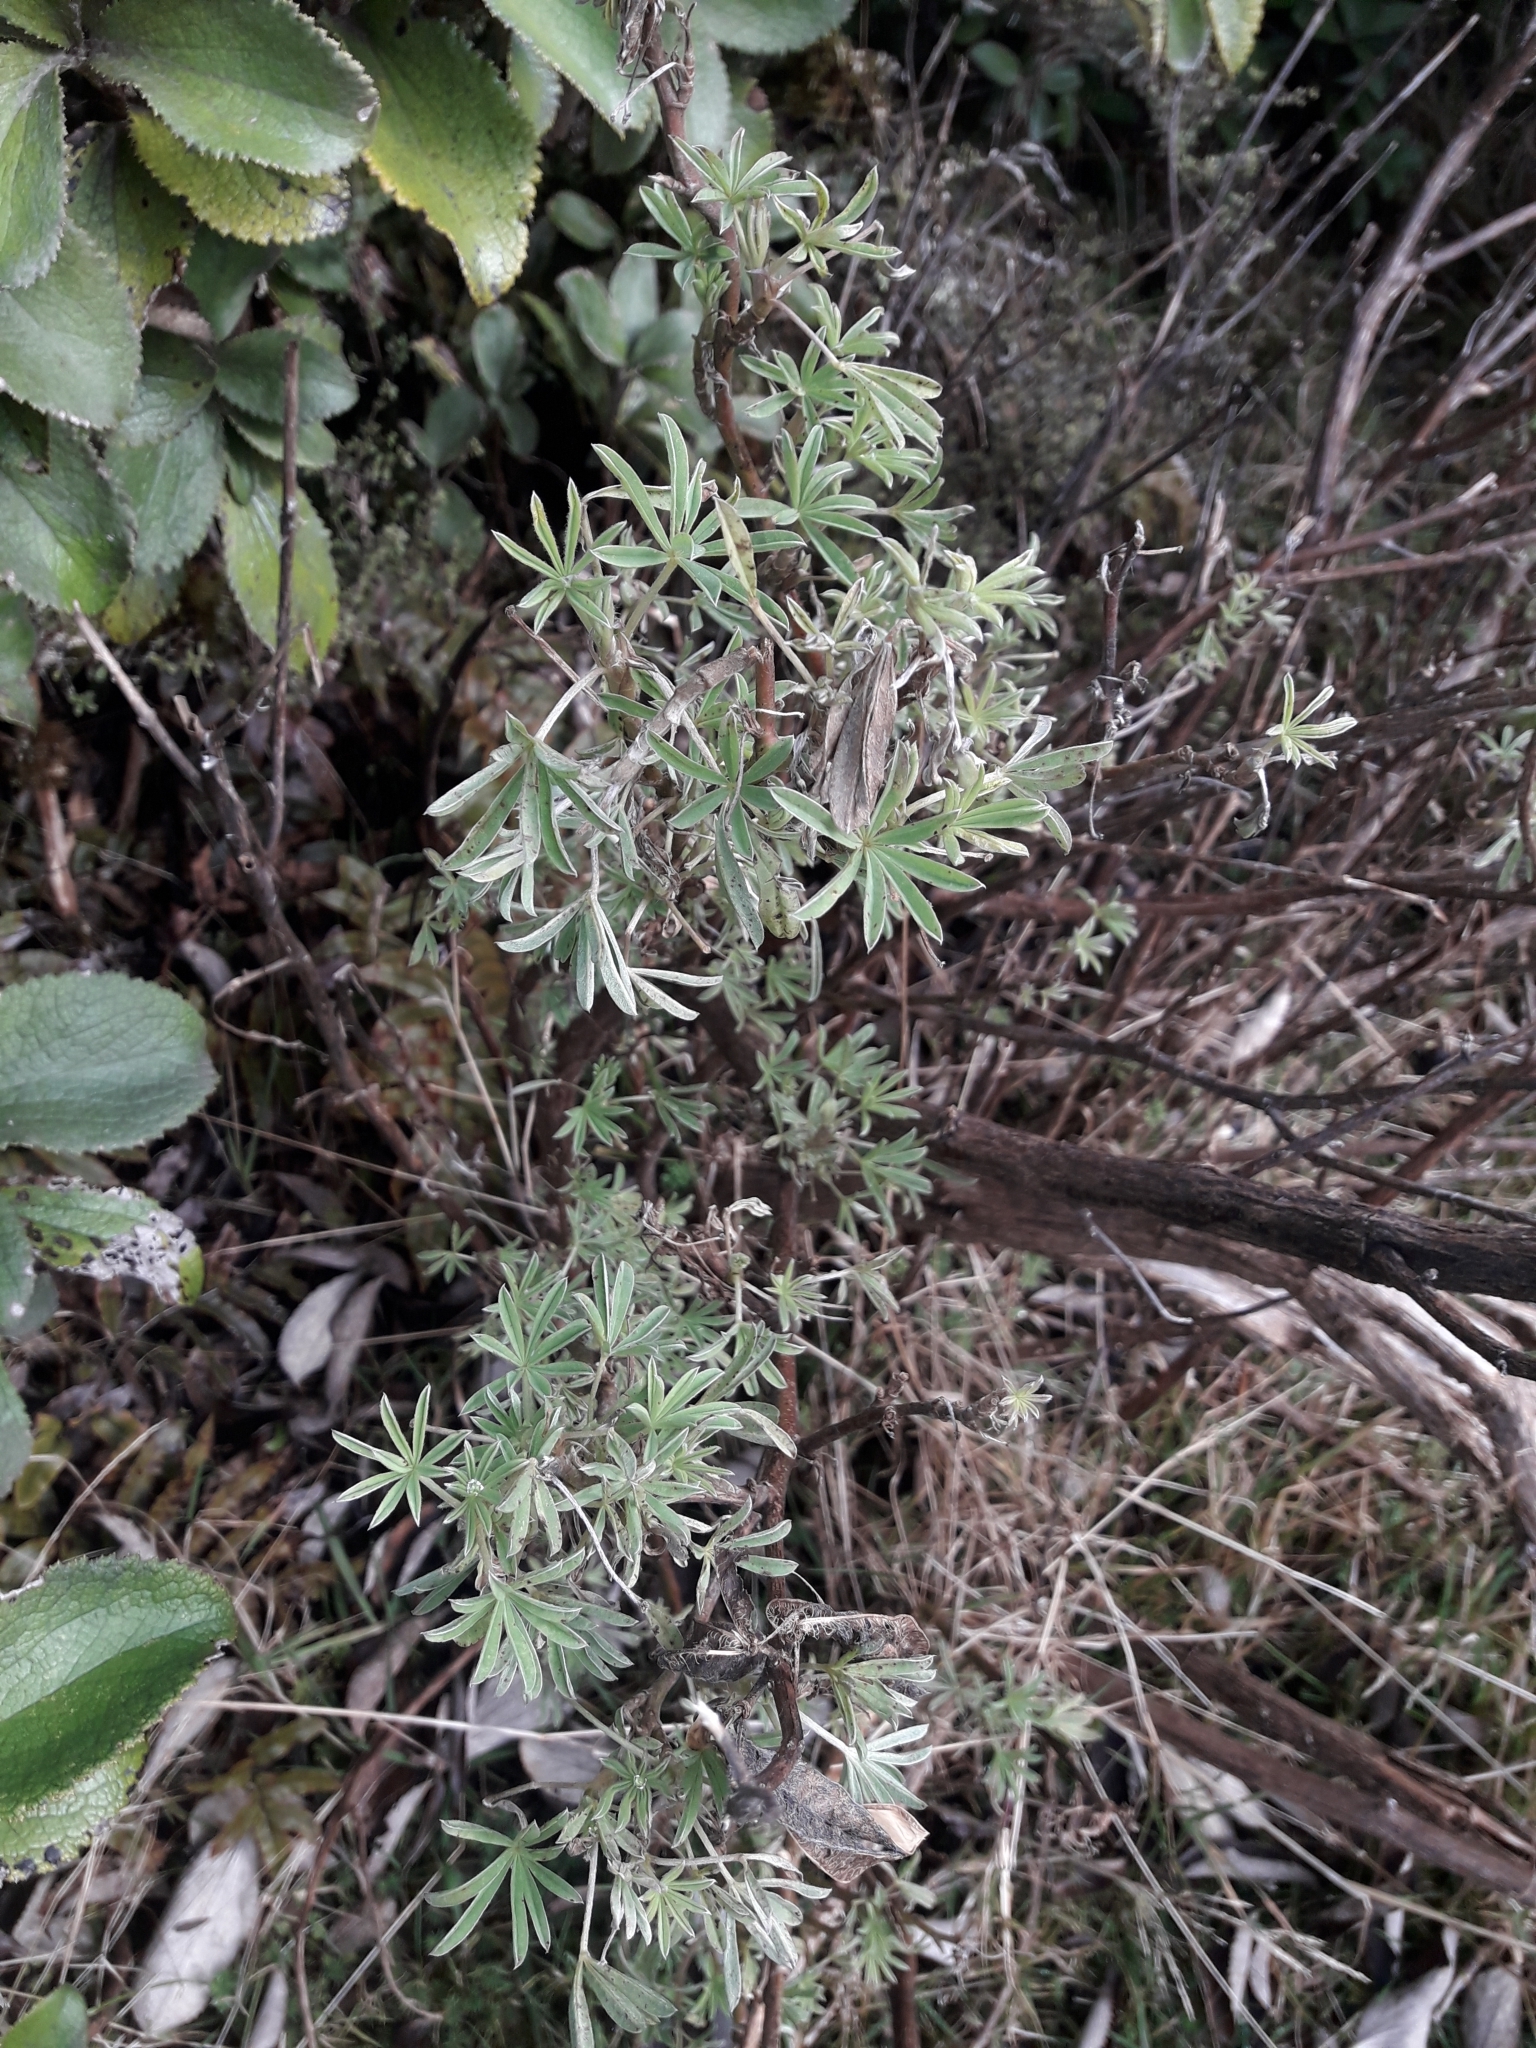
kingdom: Plantae
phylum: Tracheophyta
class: Magnoliopsida
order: Fabales
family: Fabaceae
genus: Lupinus
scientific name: Lupinus arboreus
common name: Yellow bush lupine
